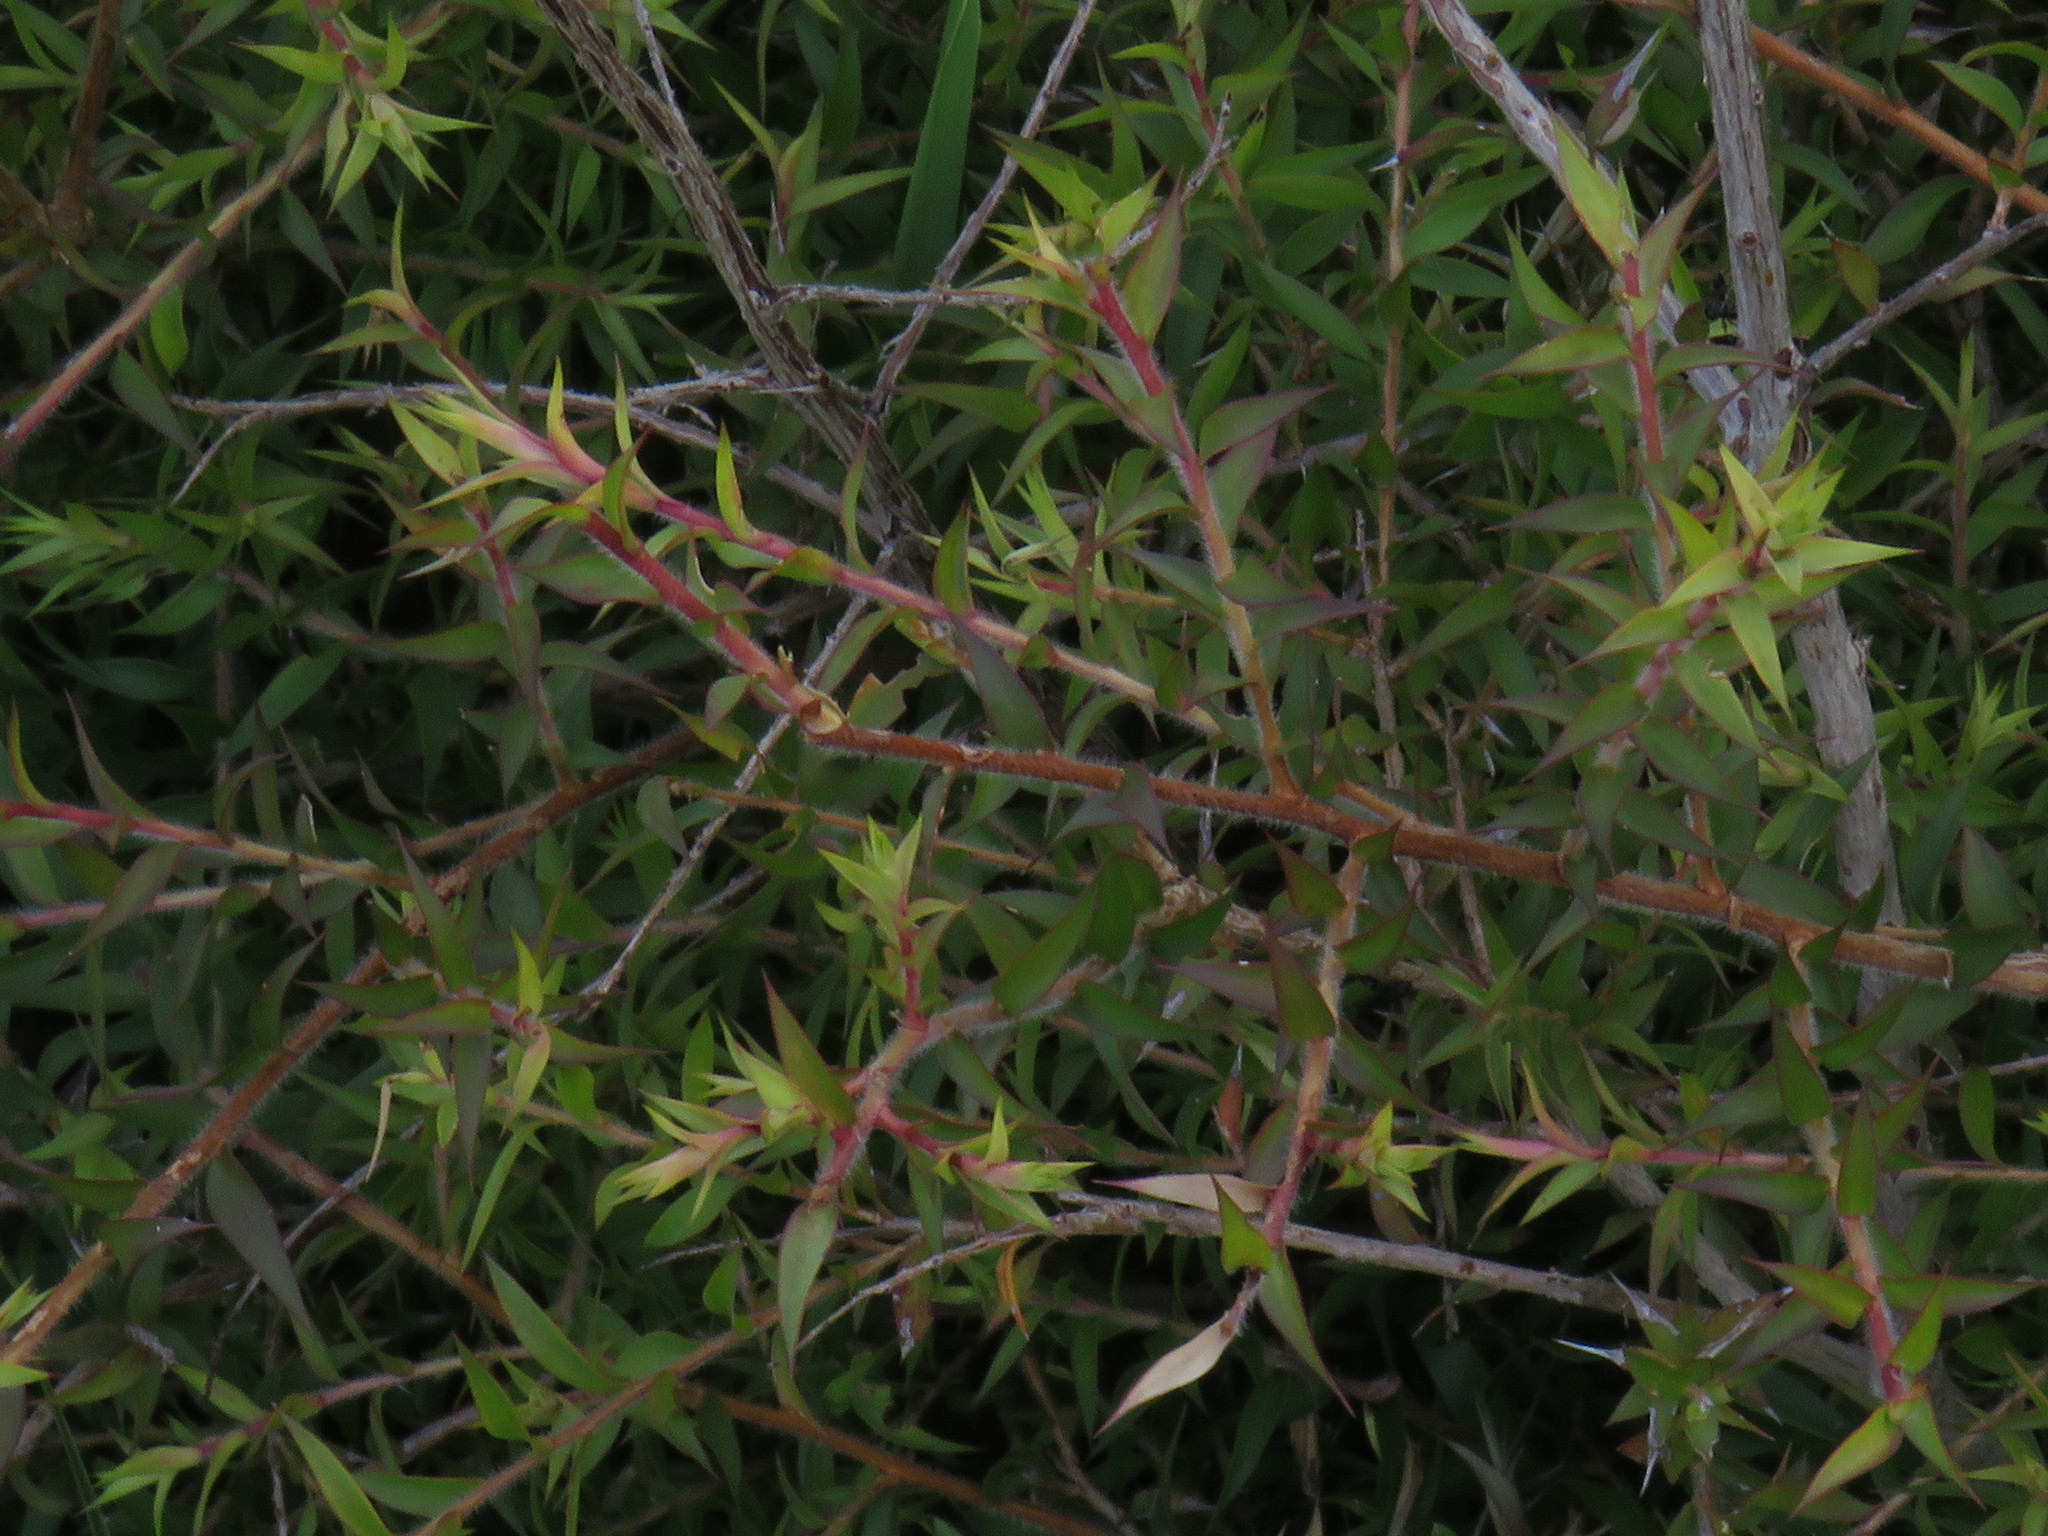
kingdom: Plantae
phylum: Tracheophyta
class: Magnoliopsida
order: Myrtales
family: Myrtaceae
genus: Melaleuca
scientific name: Melaleuca styphelioides
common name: Prickly paperbark
